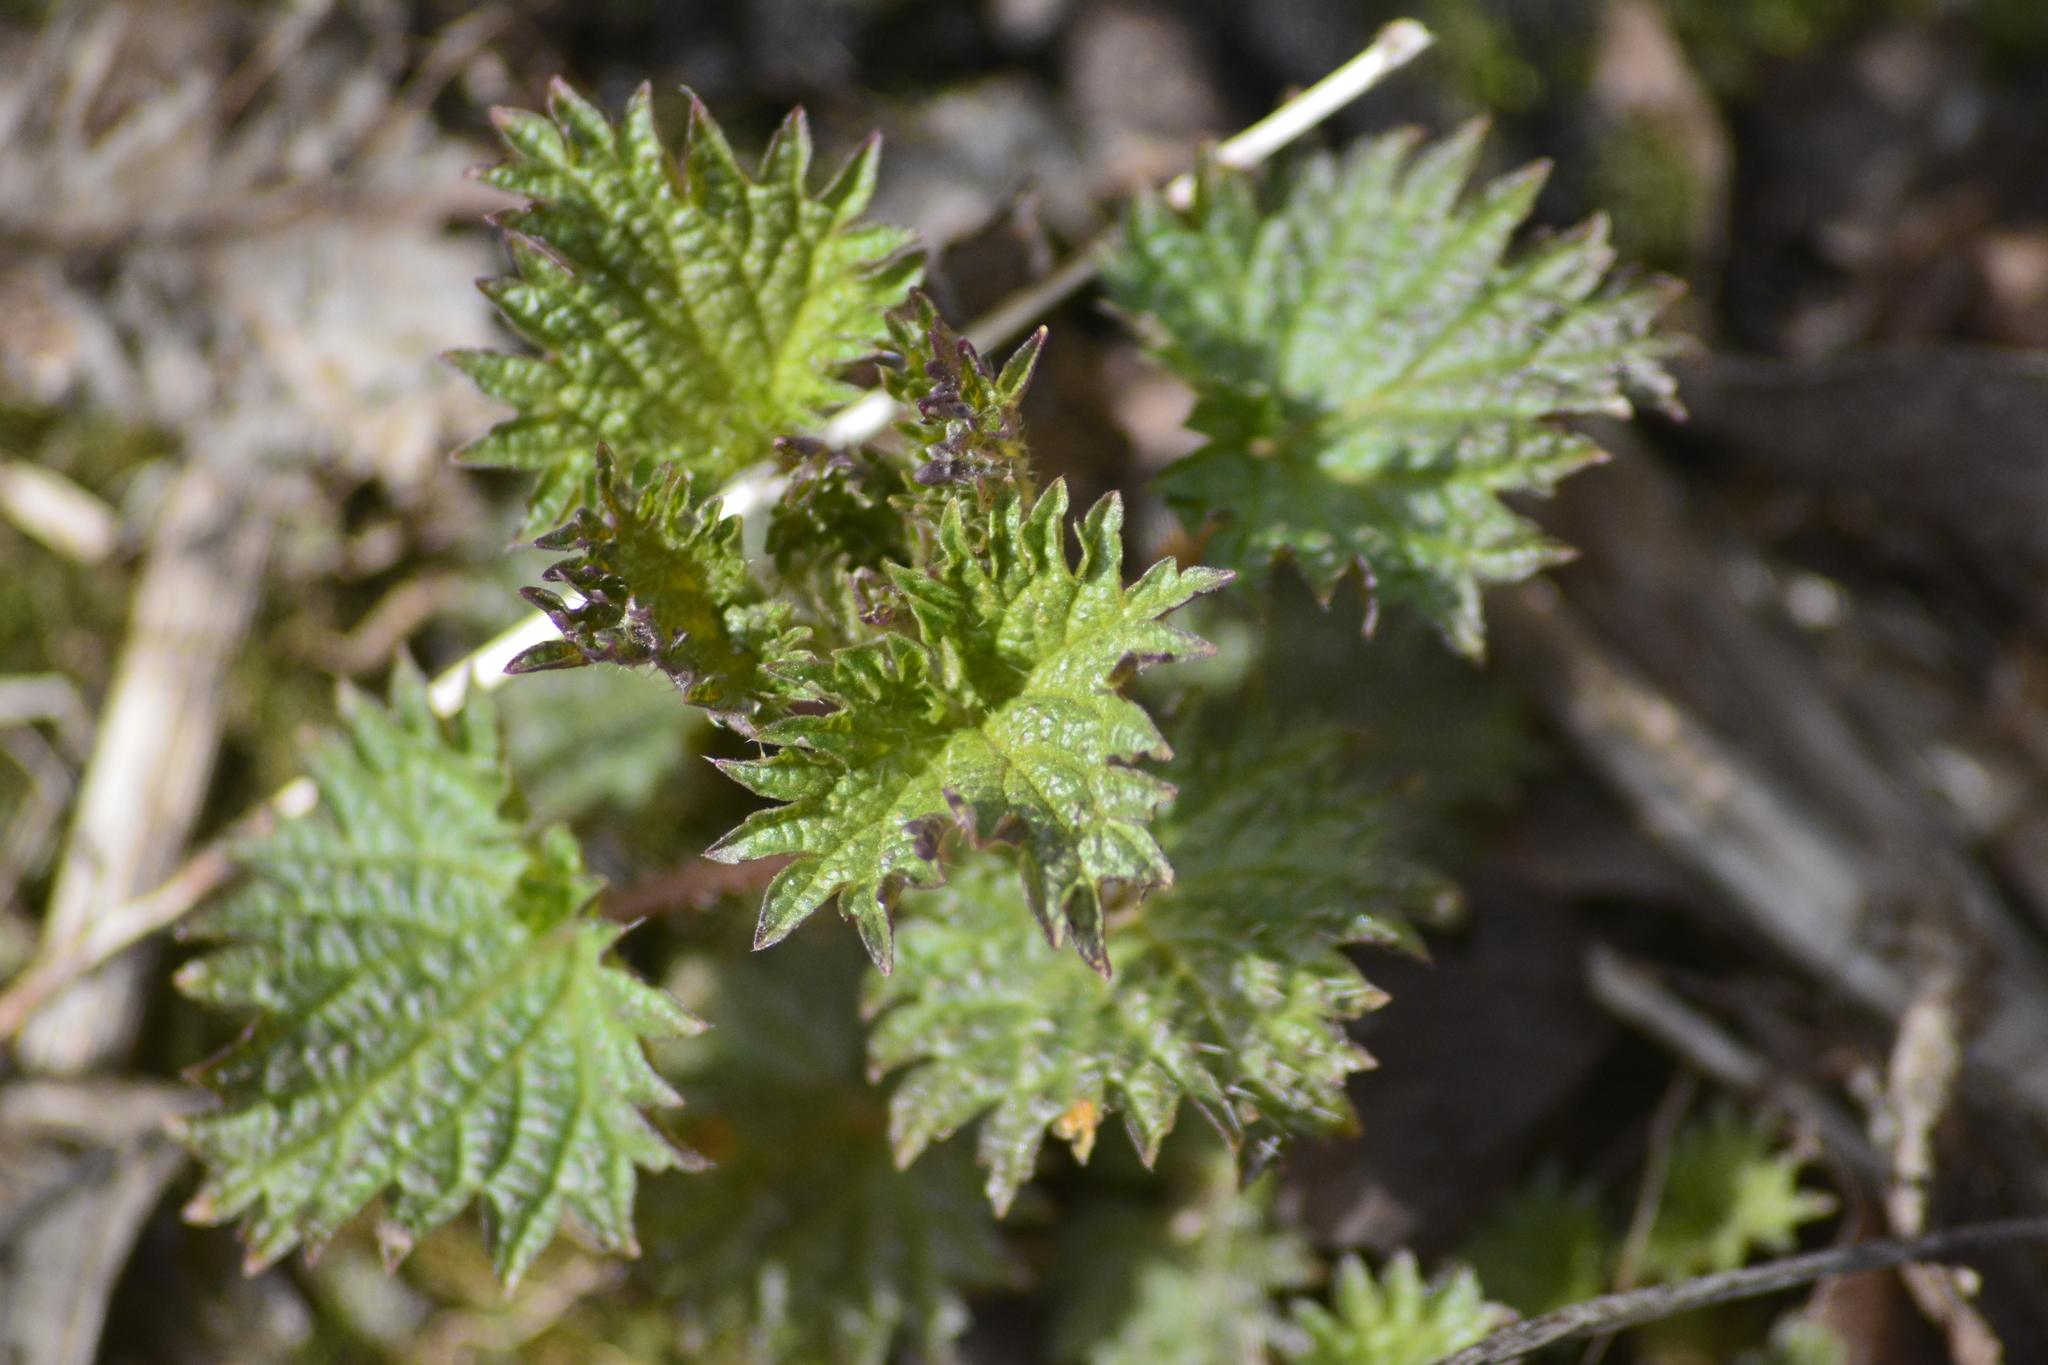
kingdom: Plantae
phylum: Tracheophyta
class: Magnoliopsida
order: Rosales
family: Urticaceae
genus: Urtica
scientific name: Urtica dioica
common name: Common nettle
